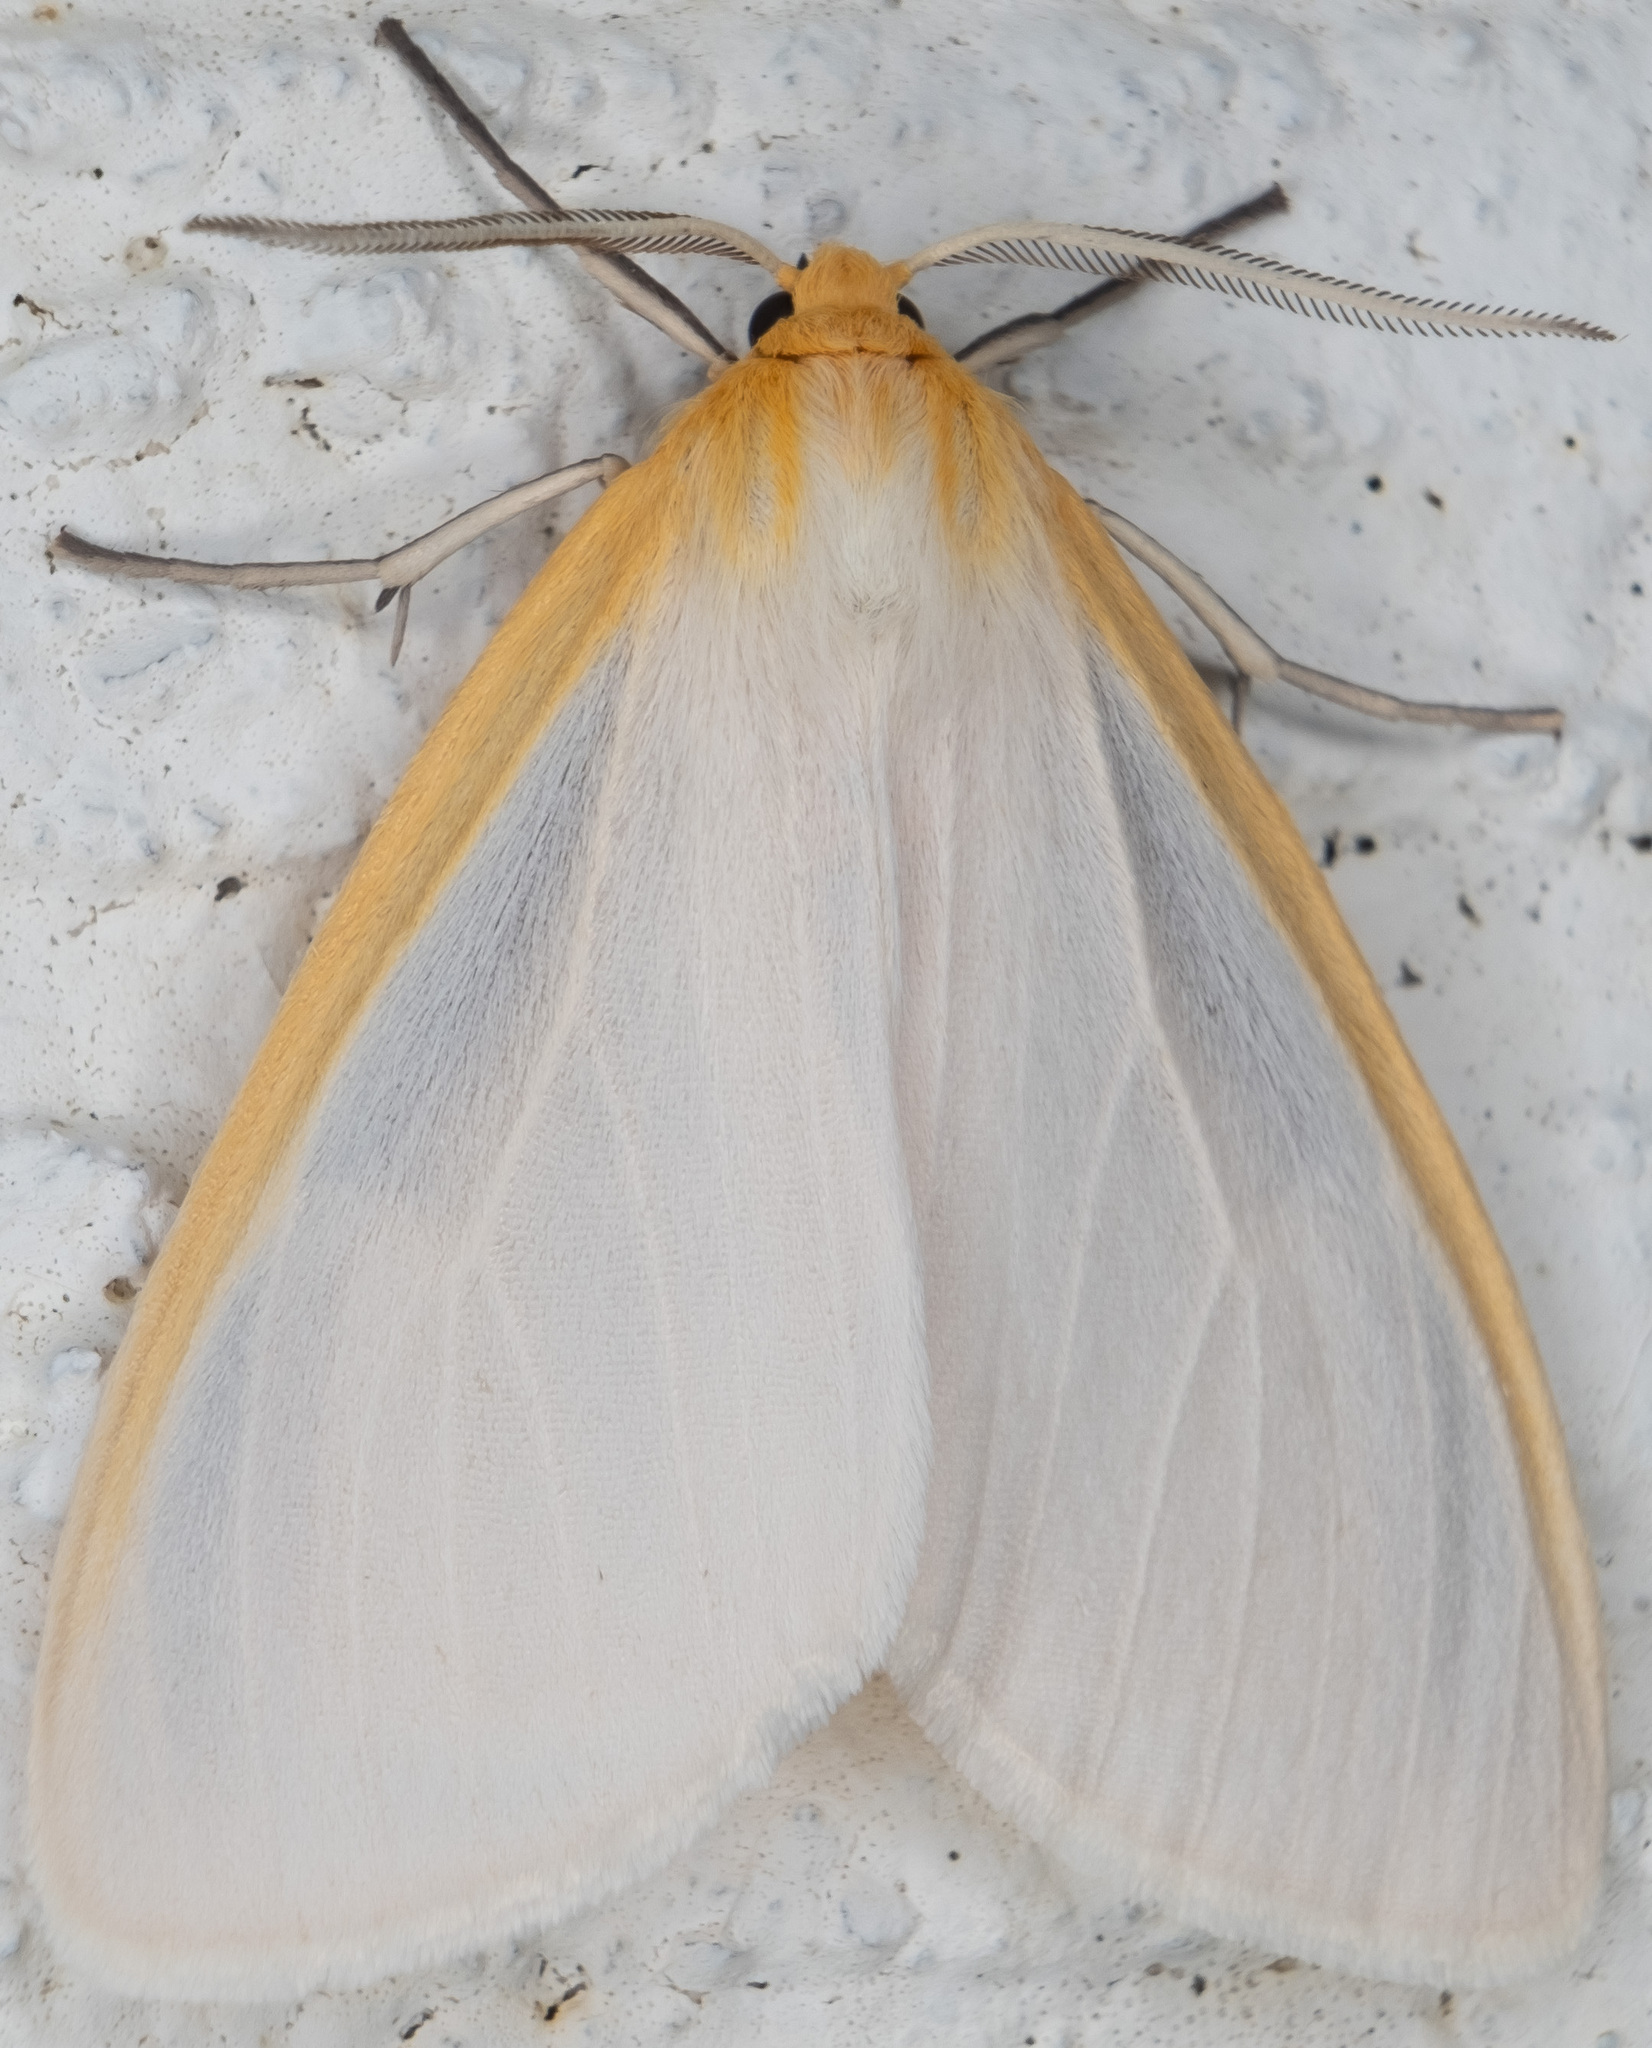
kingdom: Animalia
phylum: Arthropoda
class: Insecta
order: Lepidoptera
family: Erebidae
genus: Cycnia
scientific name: Cycnia tenera
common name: Delicate cycnia moth
